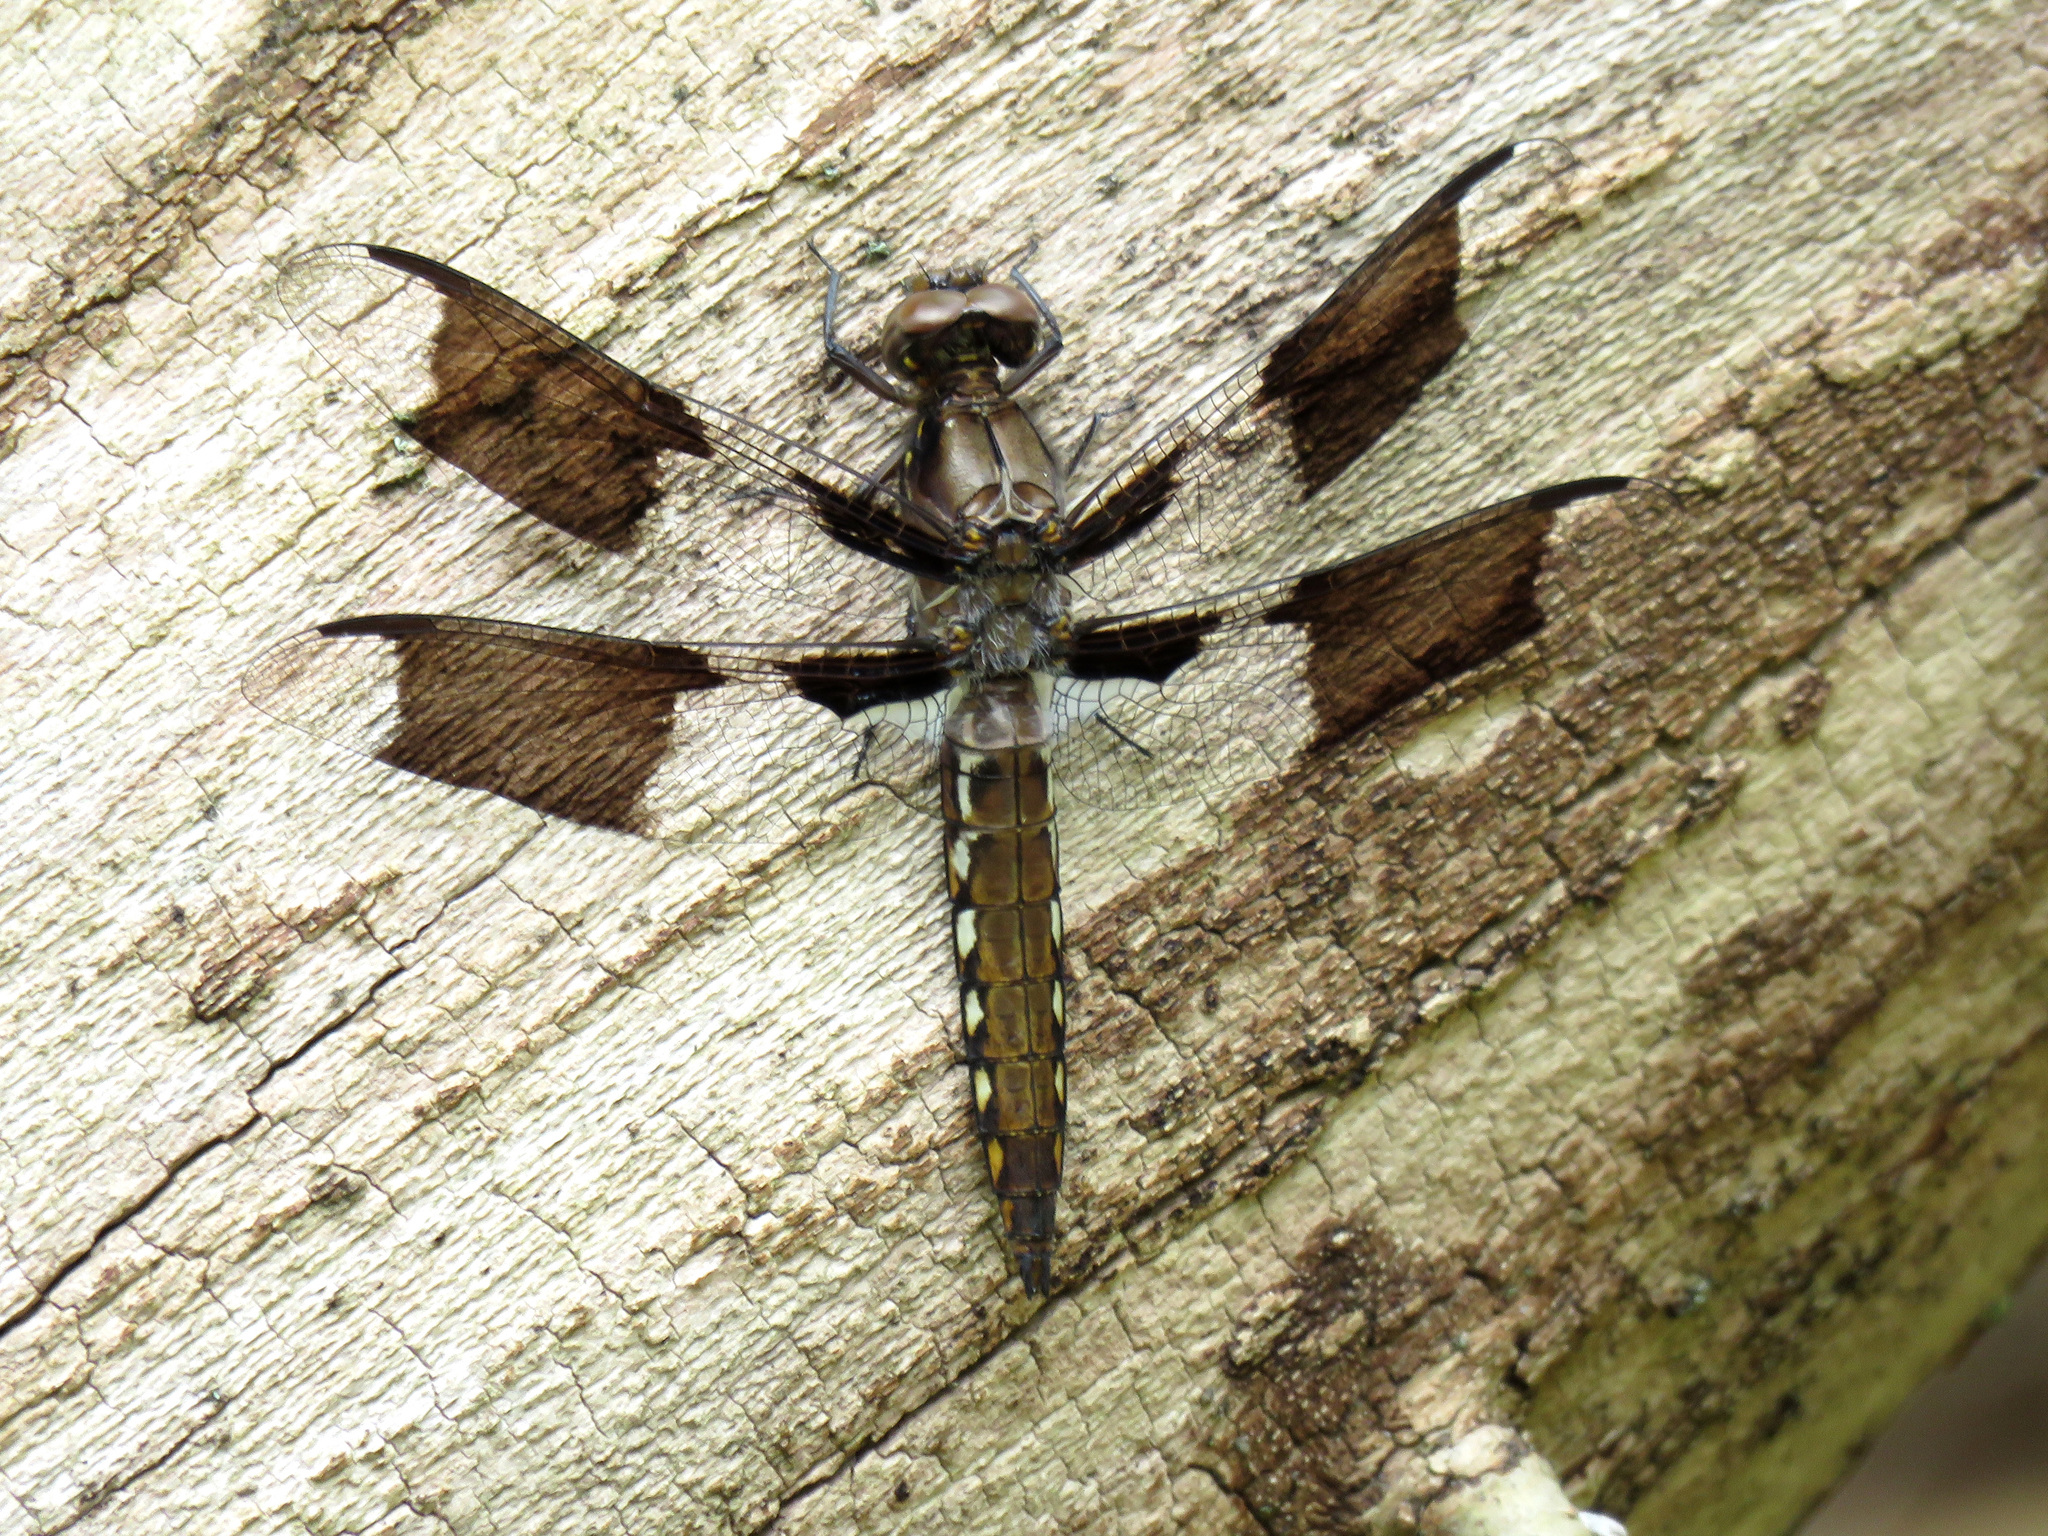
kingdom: Animalia
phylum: Arthropoda
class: Insecta
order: Odonata
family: Libellulidae
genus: Plathemis
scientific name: Plathemis lydia
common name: Common whitetail
